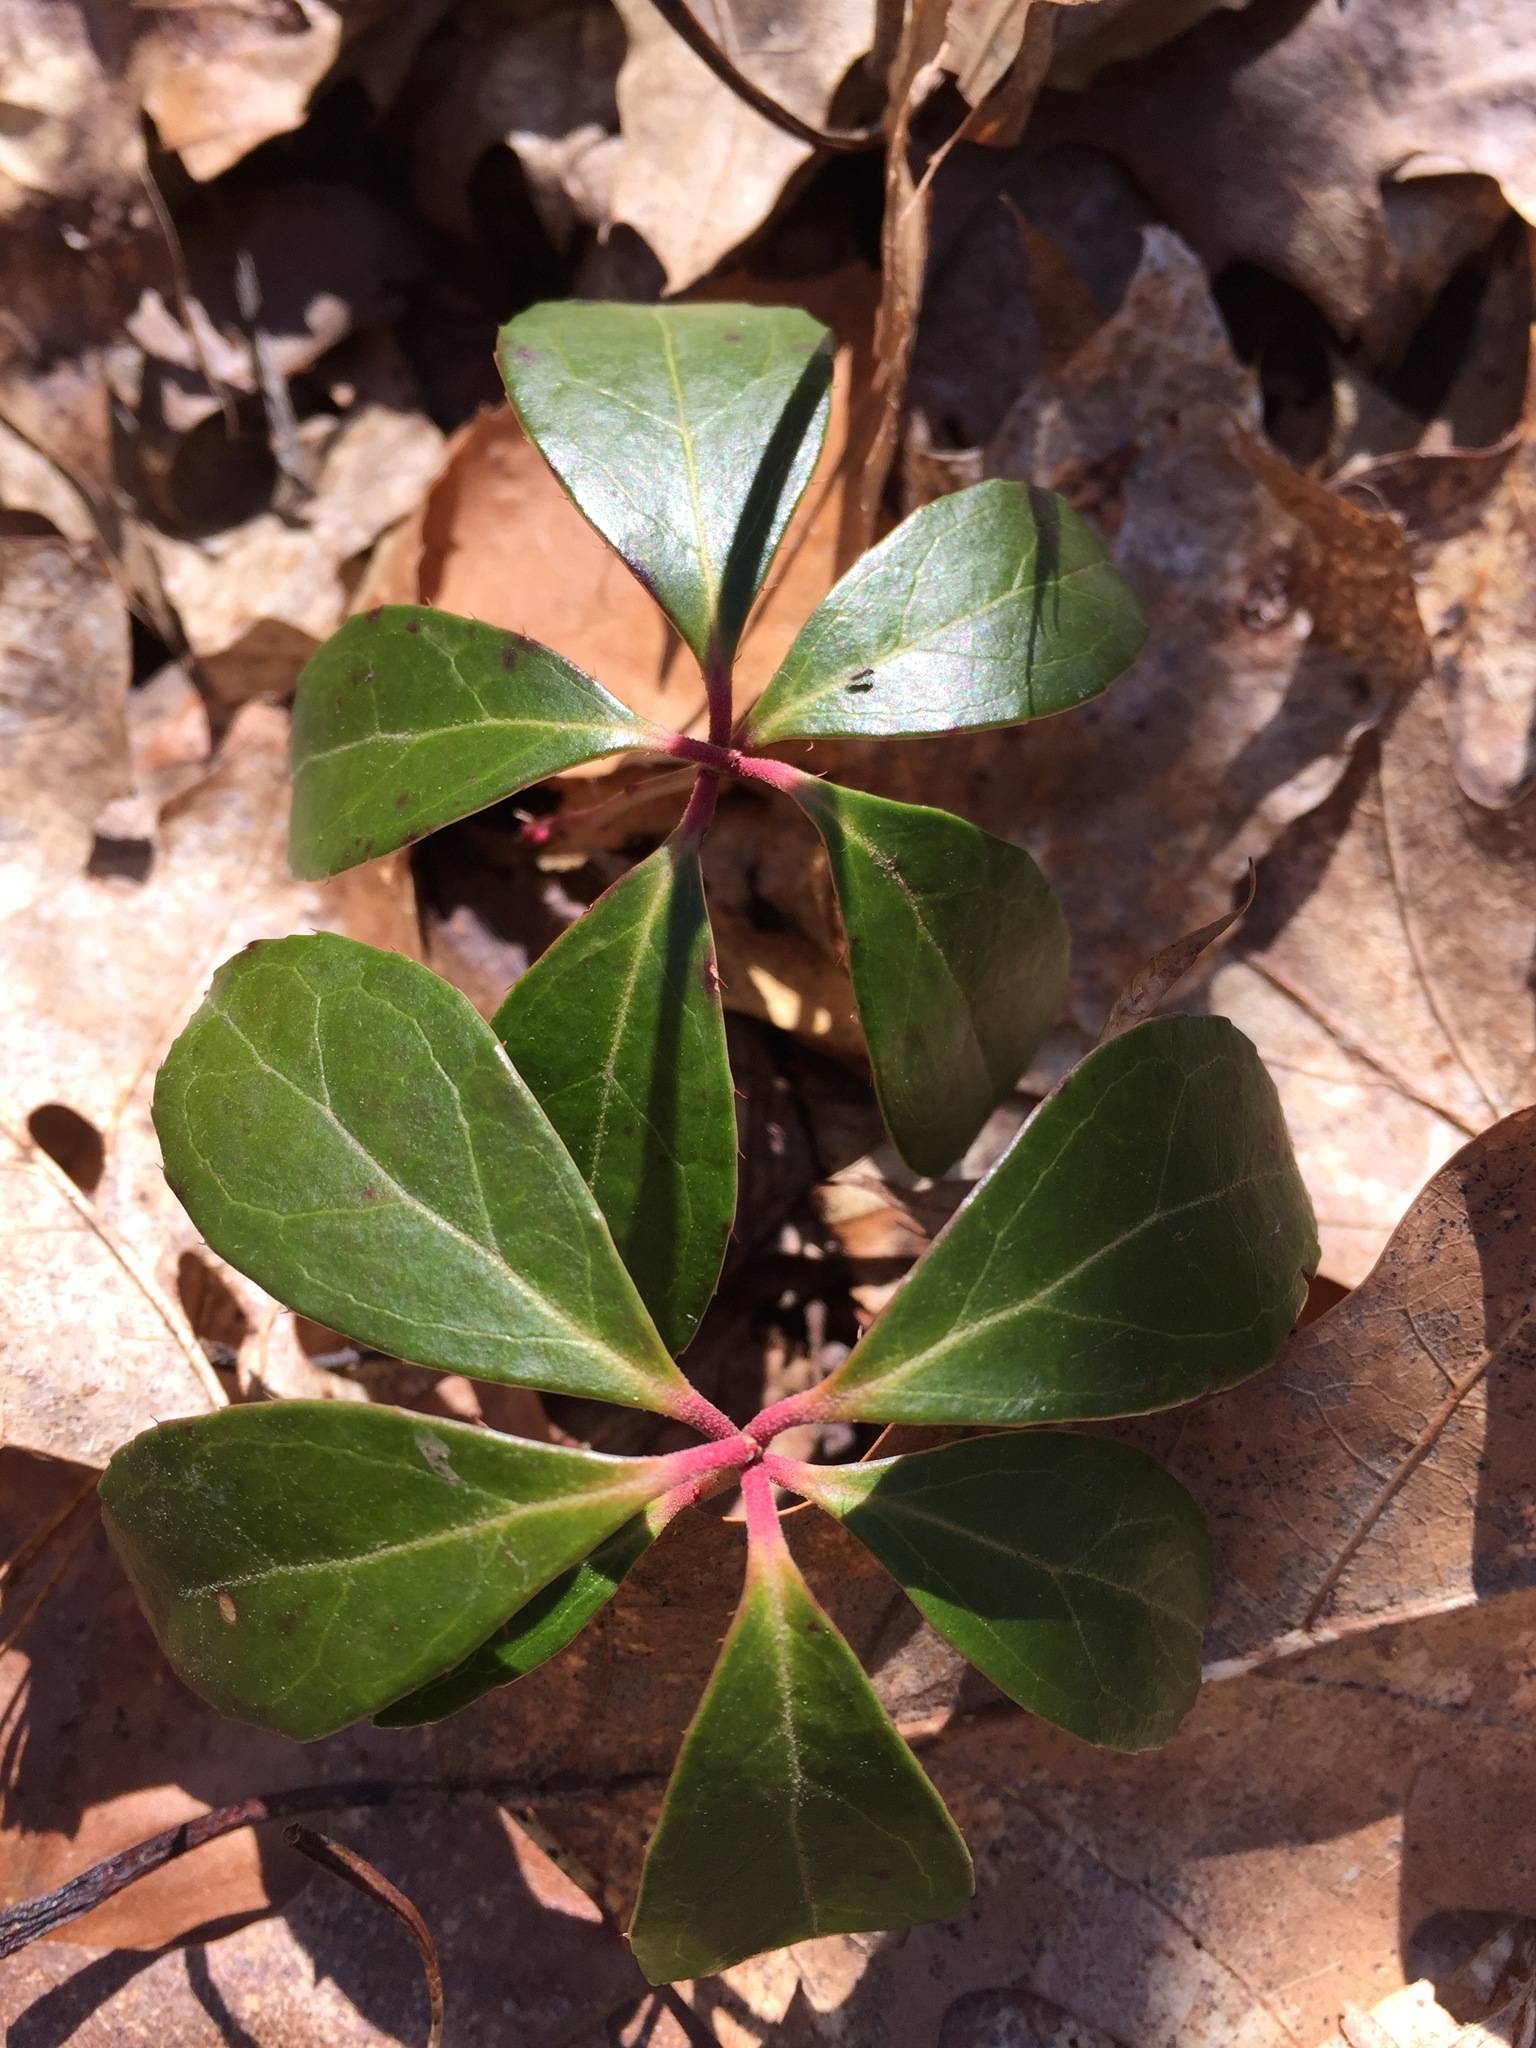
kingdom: Plantae
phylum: Tracheophyta
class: Magnoliopsida
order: Ericales
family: Ericaceae
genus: Gaultheria
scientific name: Gaultheria procumbens
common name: Checkerberry
